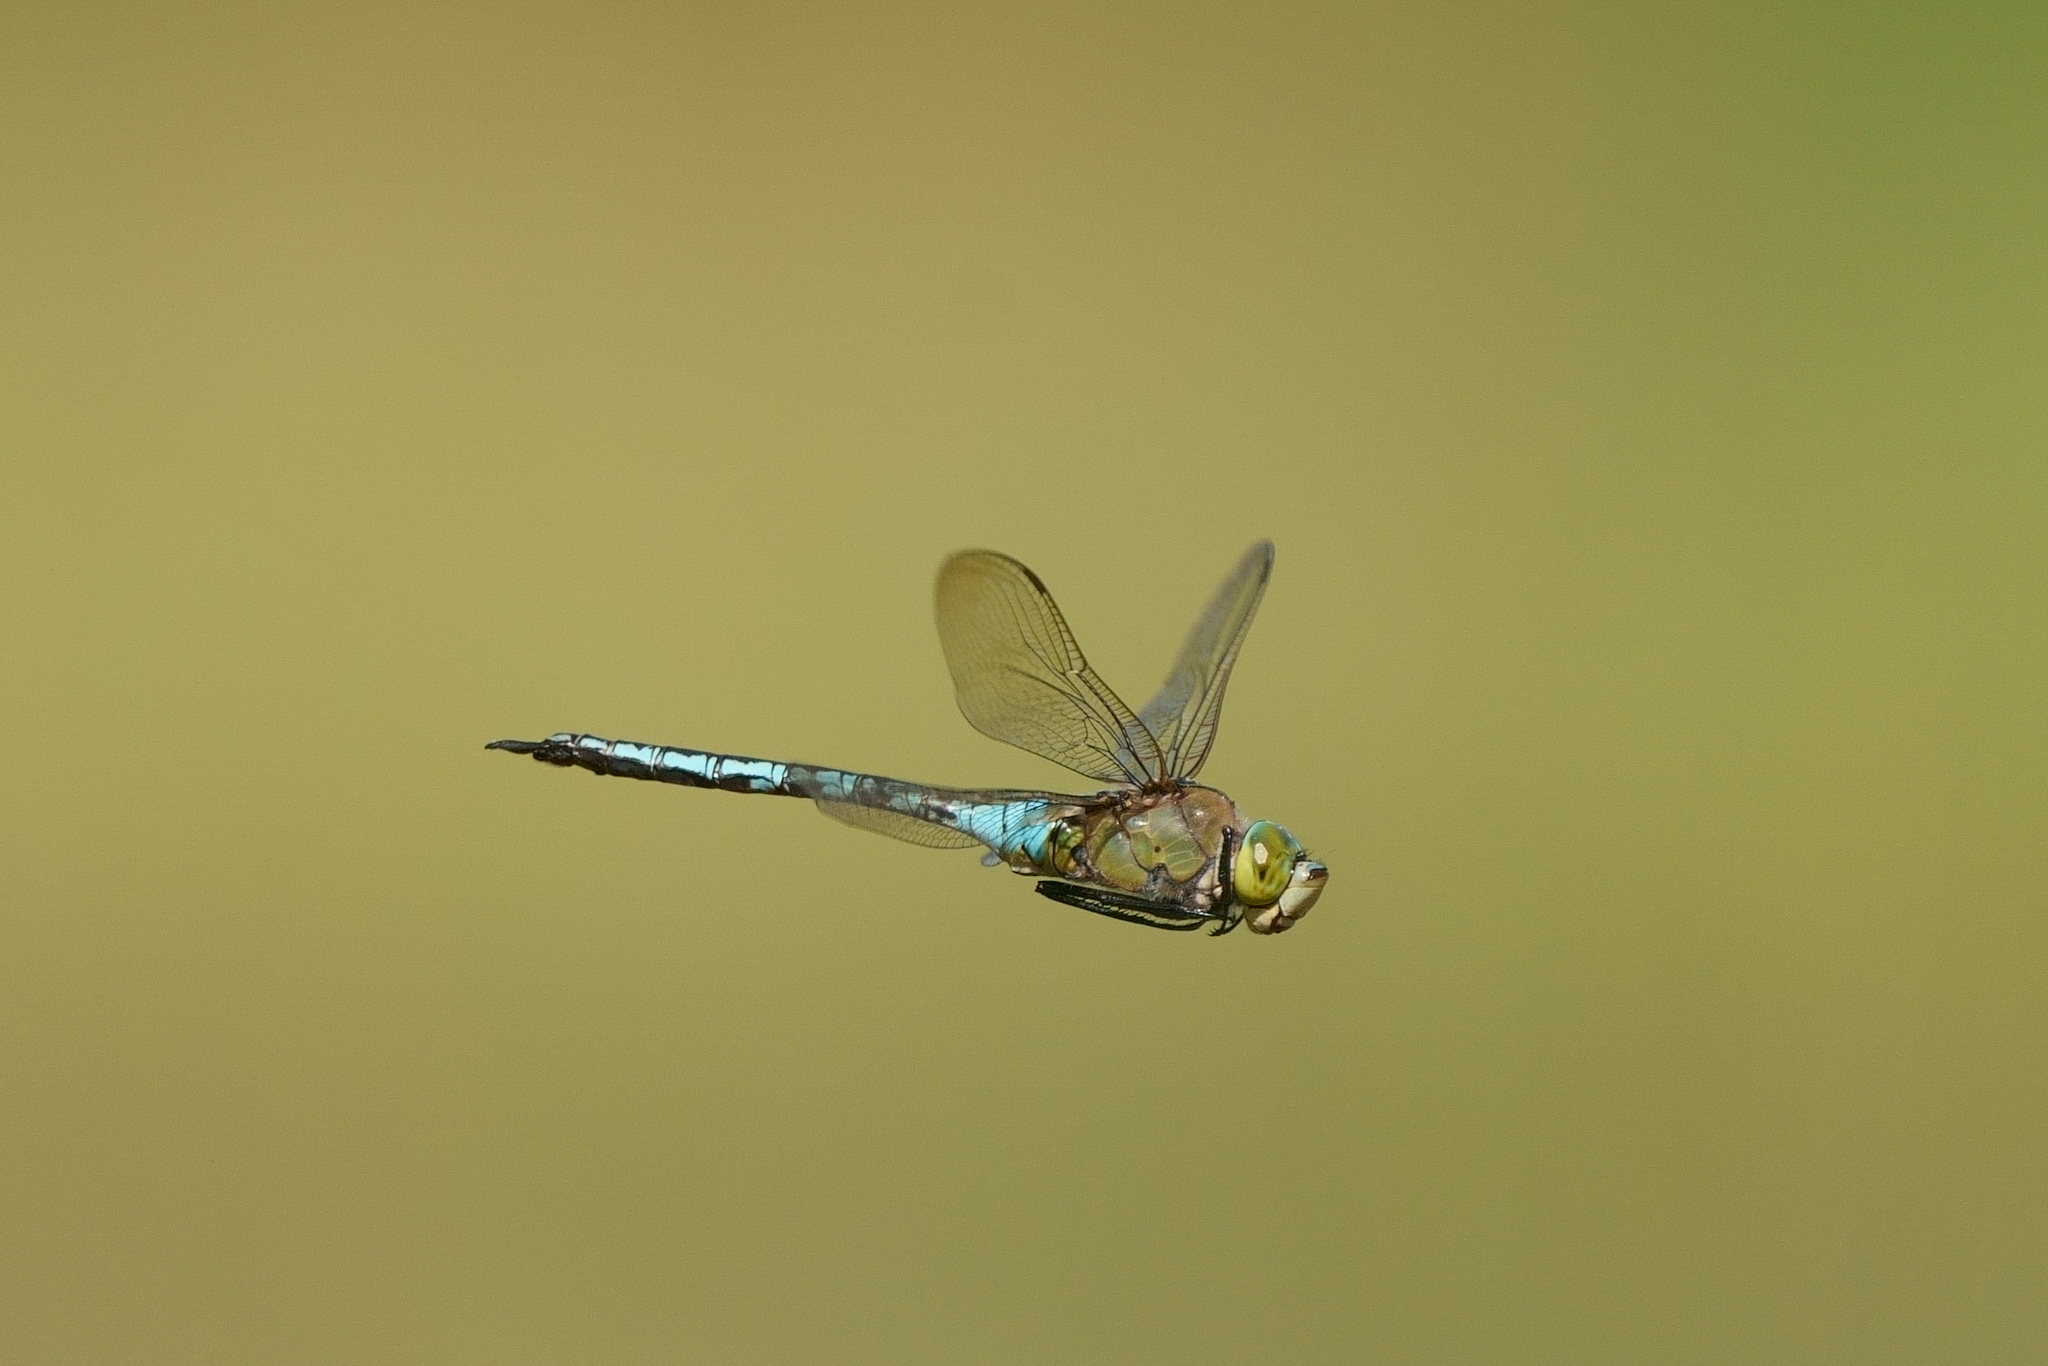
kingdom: Animalia
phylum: Arthropoda
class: Insecta
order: Odonata
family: Aeshnidae
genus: Anax
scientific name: Anax imperator
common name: Emperor dragonfly
